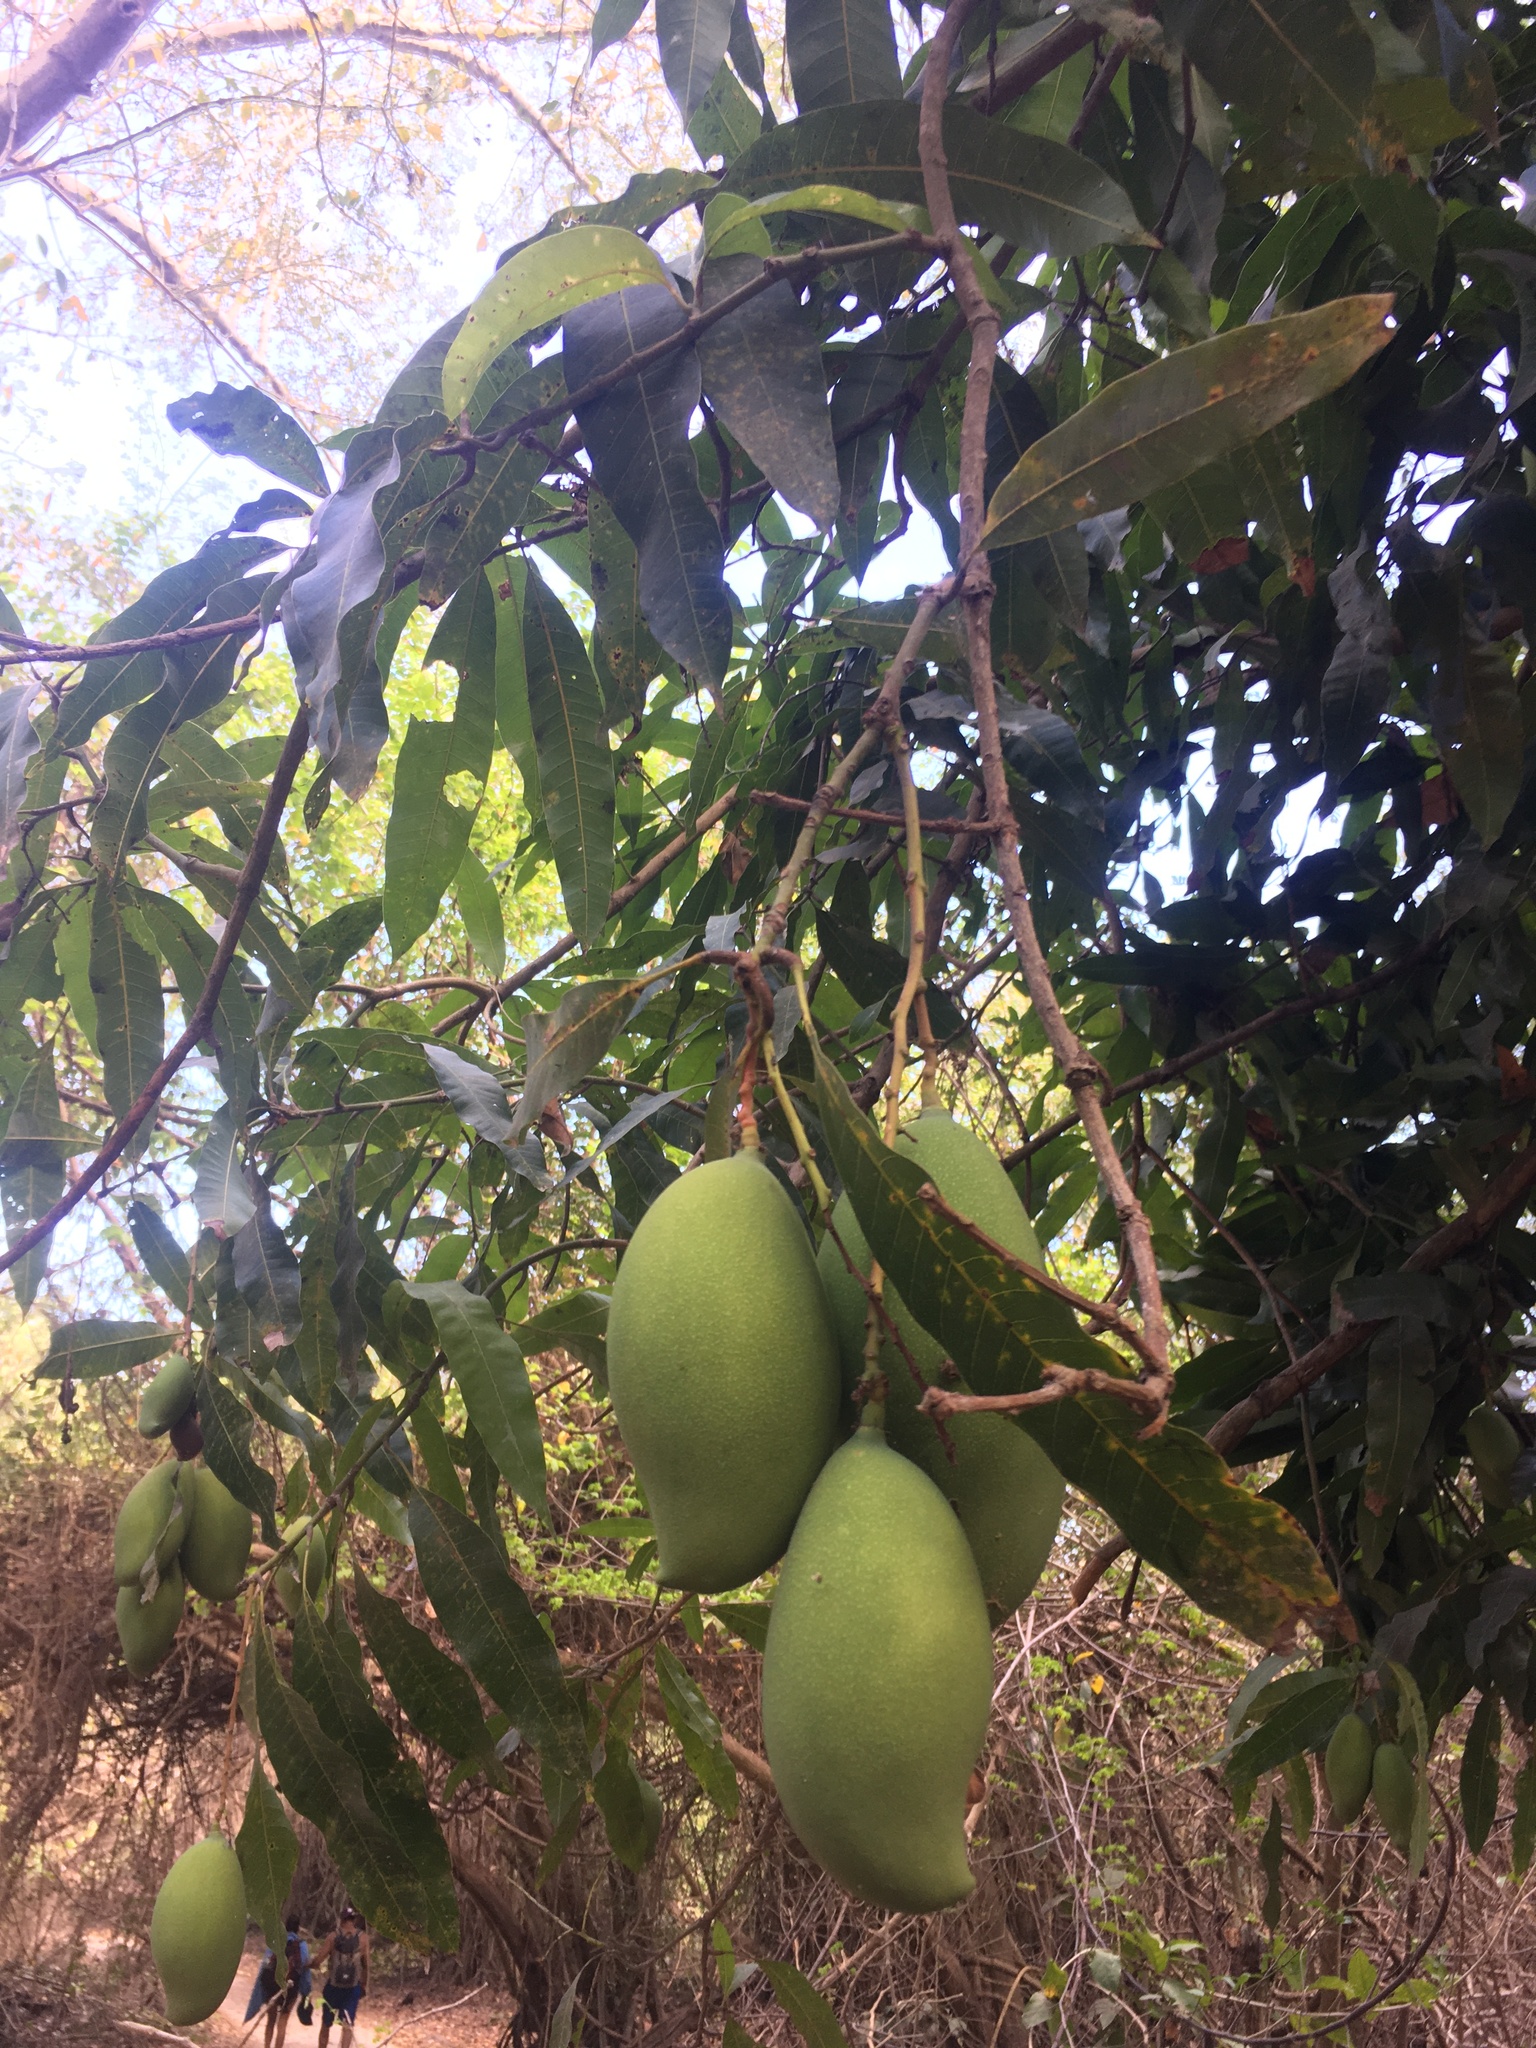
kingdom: Plantae
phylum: Tracheophyta
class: Magnoliopsida
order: Sapindales
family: Anacardiaceae
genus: Mangifera
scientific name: Mangifera indica
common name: Mango
